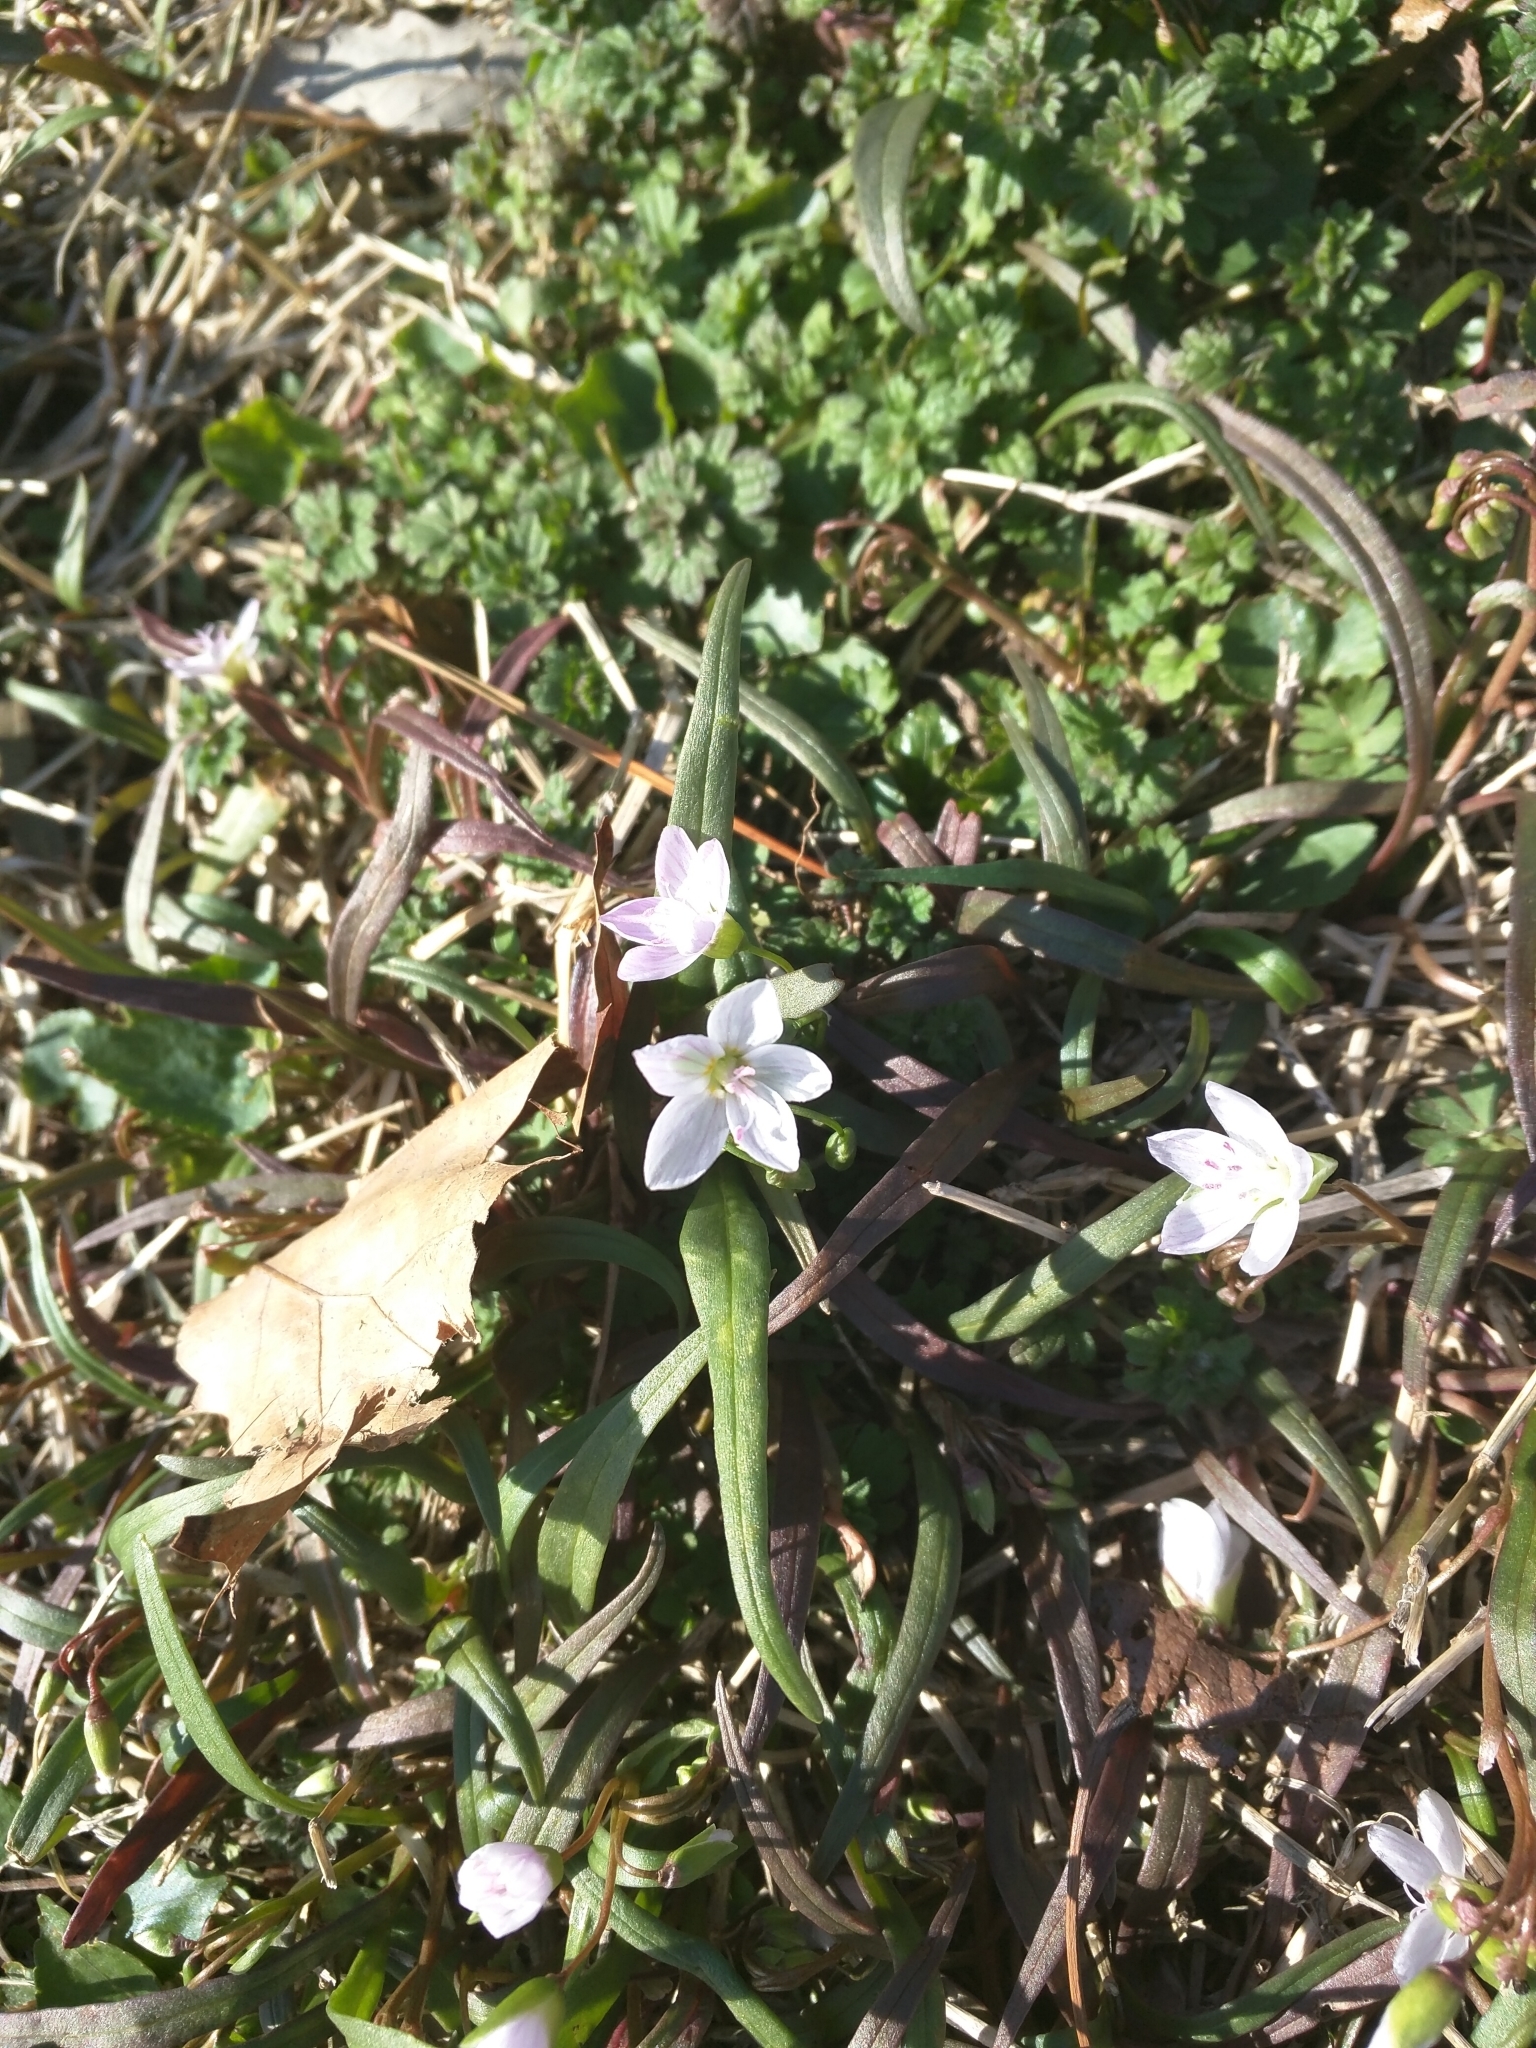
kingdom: Plantae
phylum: Tracheophyta
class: Magnoliopsida
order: Caryophyllales
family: Montiaceae
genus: Claytonia
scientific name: Claytonia virginica
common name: Virginia springbeauty
